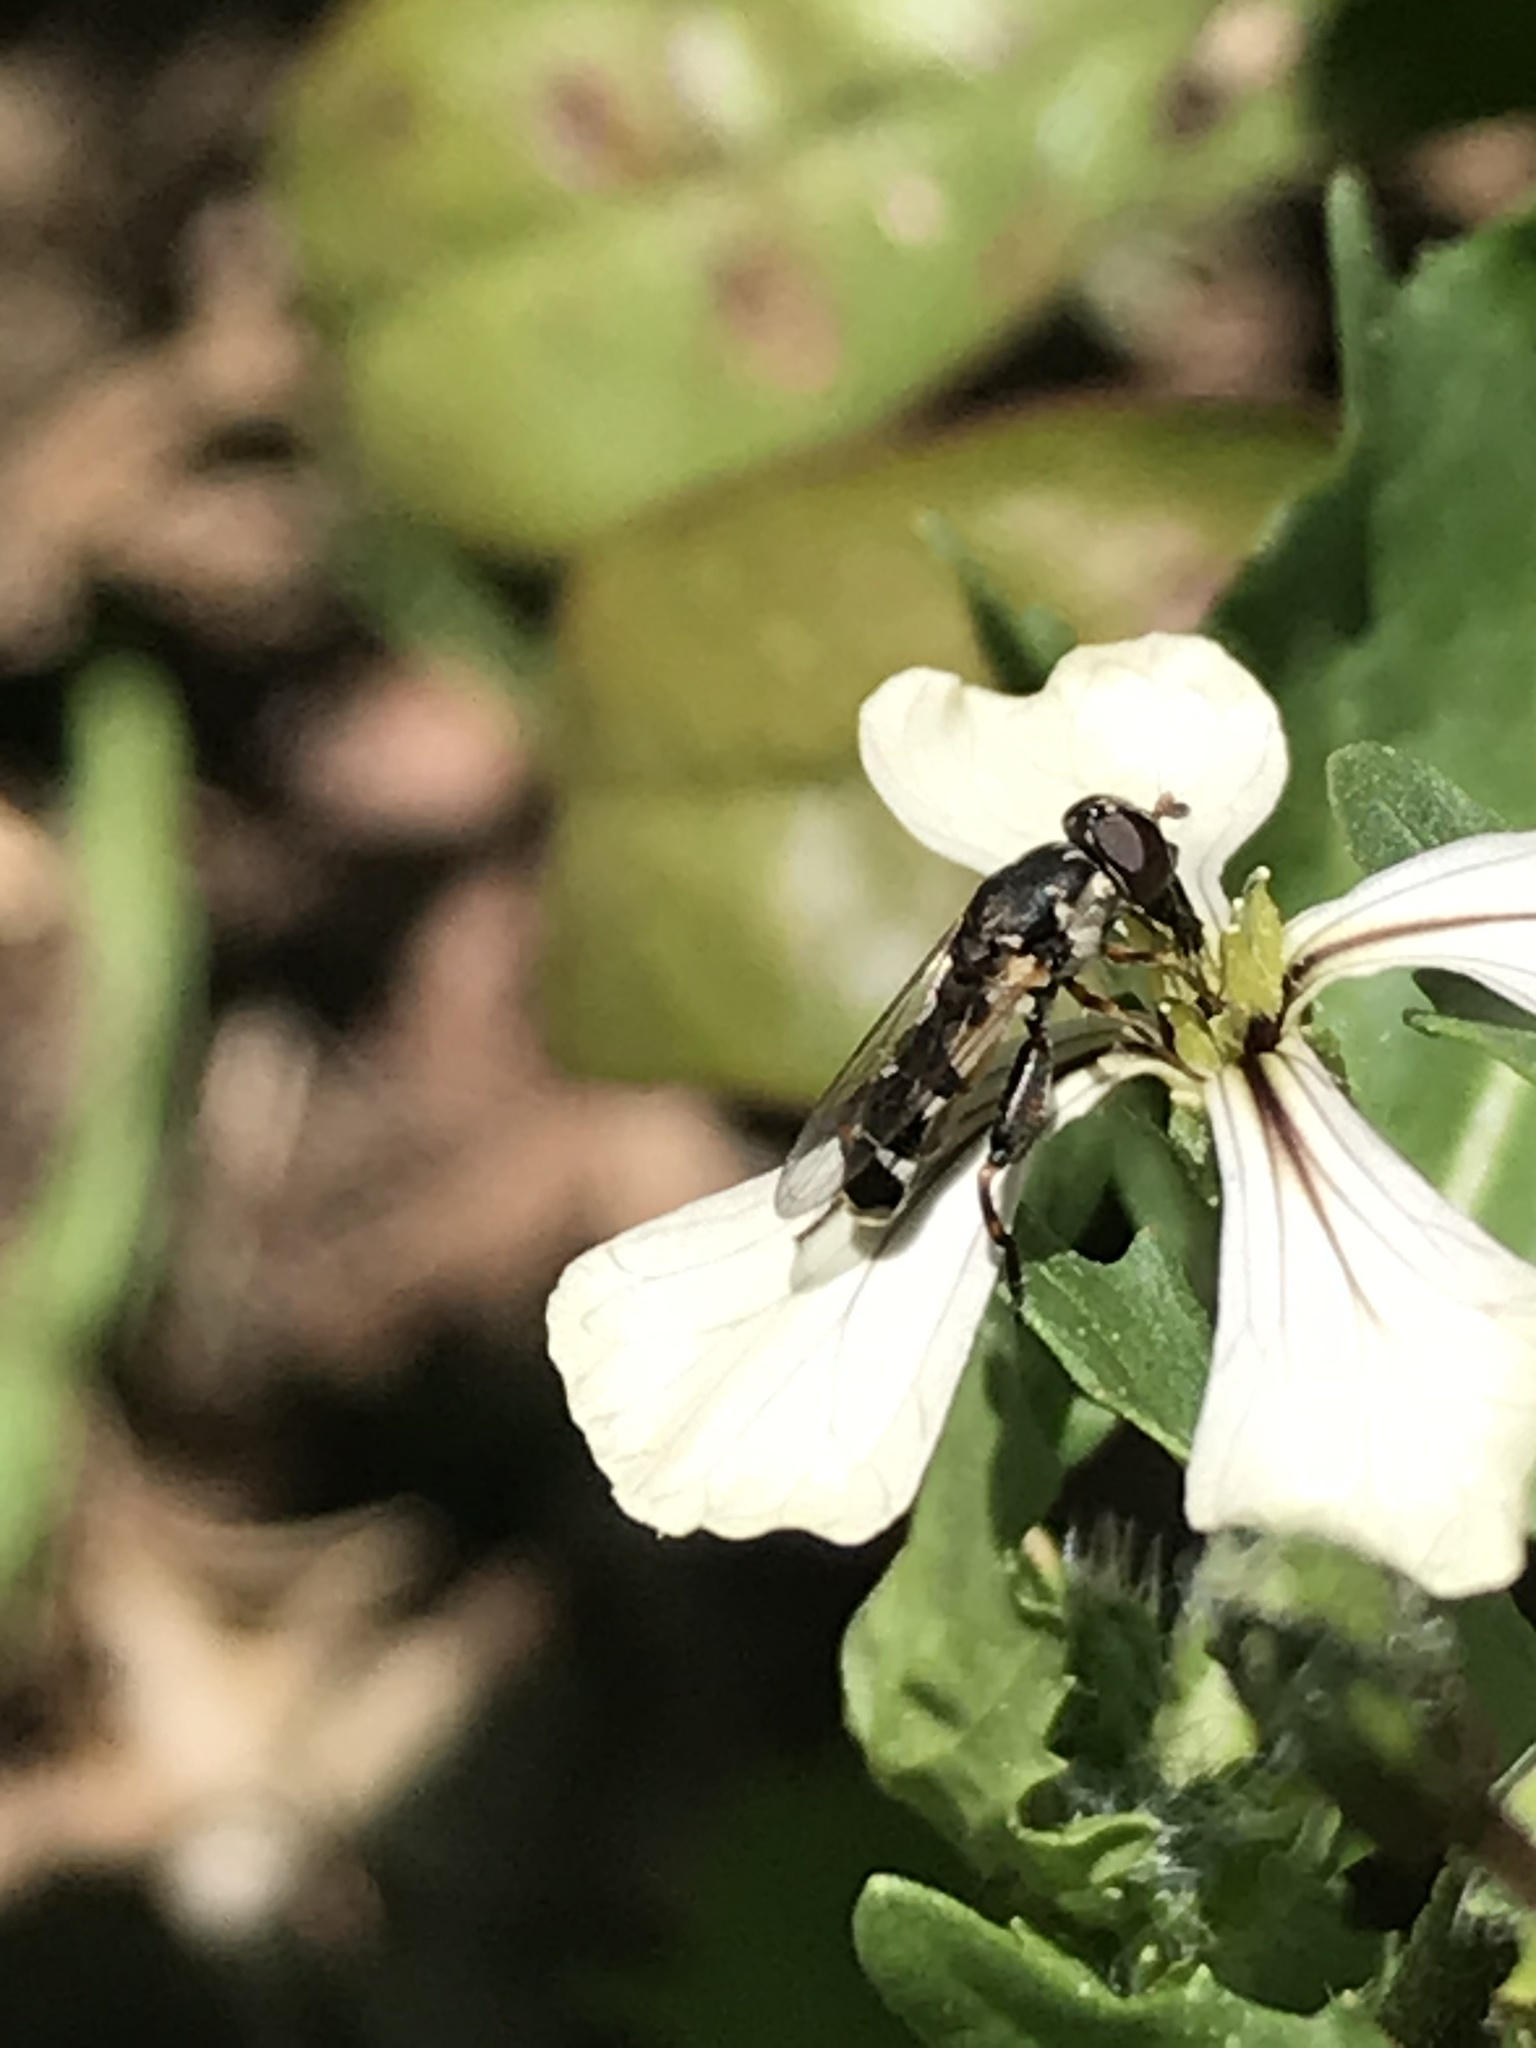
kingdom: Animalia
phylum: Arthropoda
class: Insecta
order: Diptera
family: Syrphidae
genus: Syritta
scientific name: Syritta pipiens
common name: Hover fly
